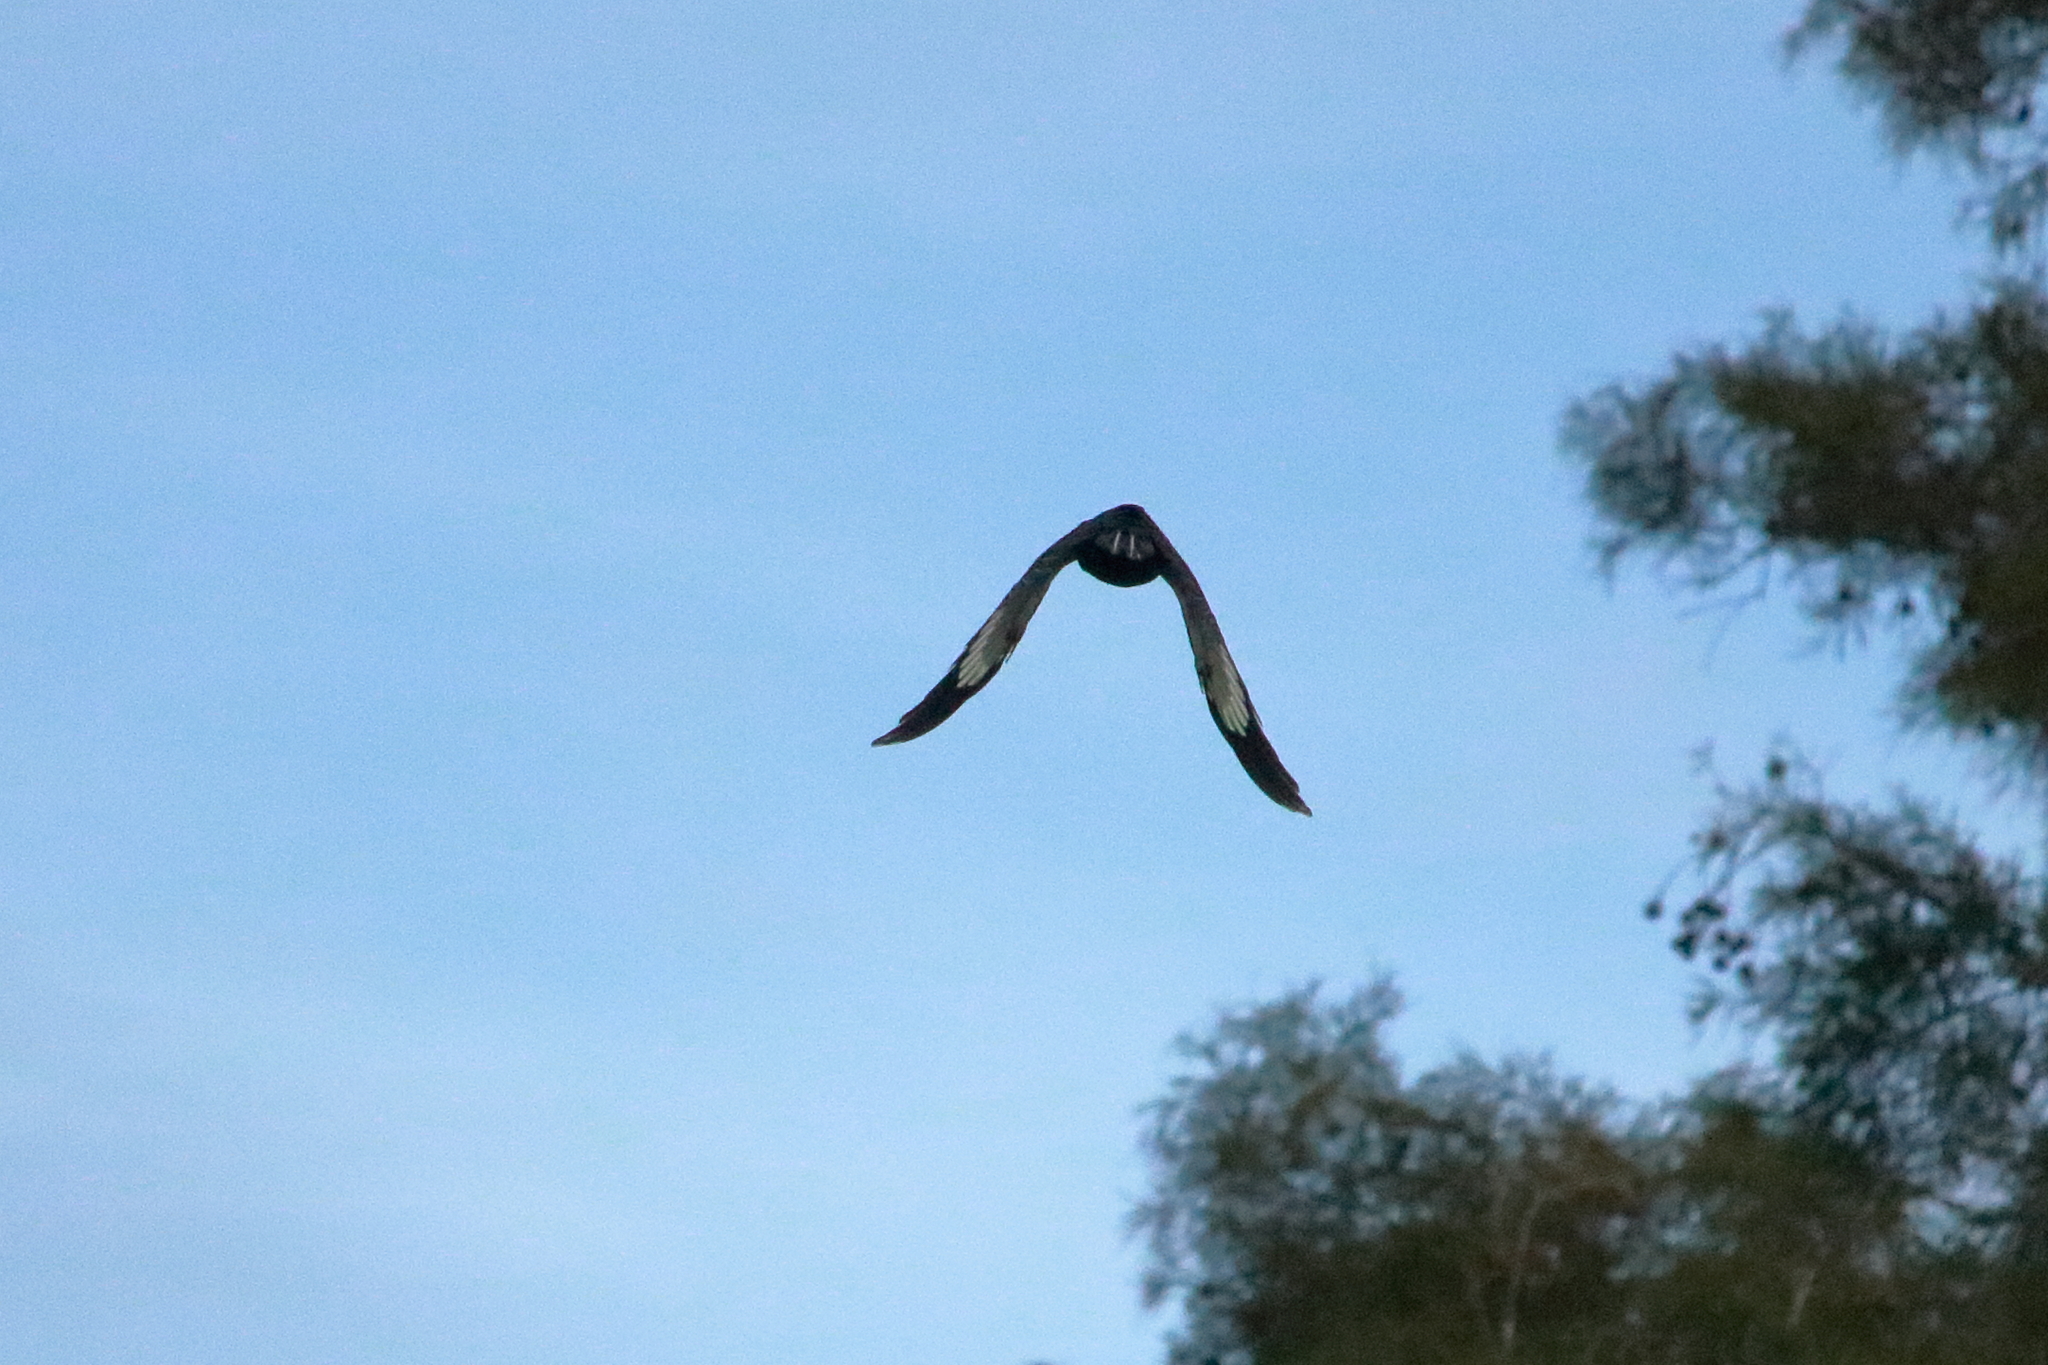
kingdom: Animalia
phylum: Chordata
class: Aves
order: Piciformes
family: Picidae
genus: Dryocopus
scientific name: Dryocopus pileatus
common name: Pileated woodpecker
